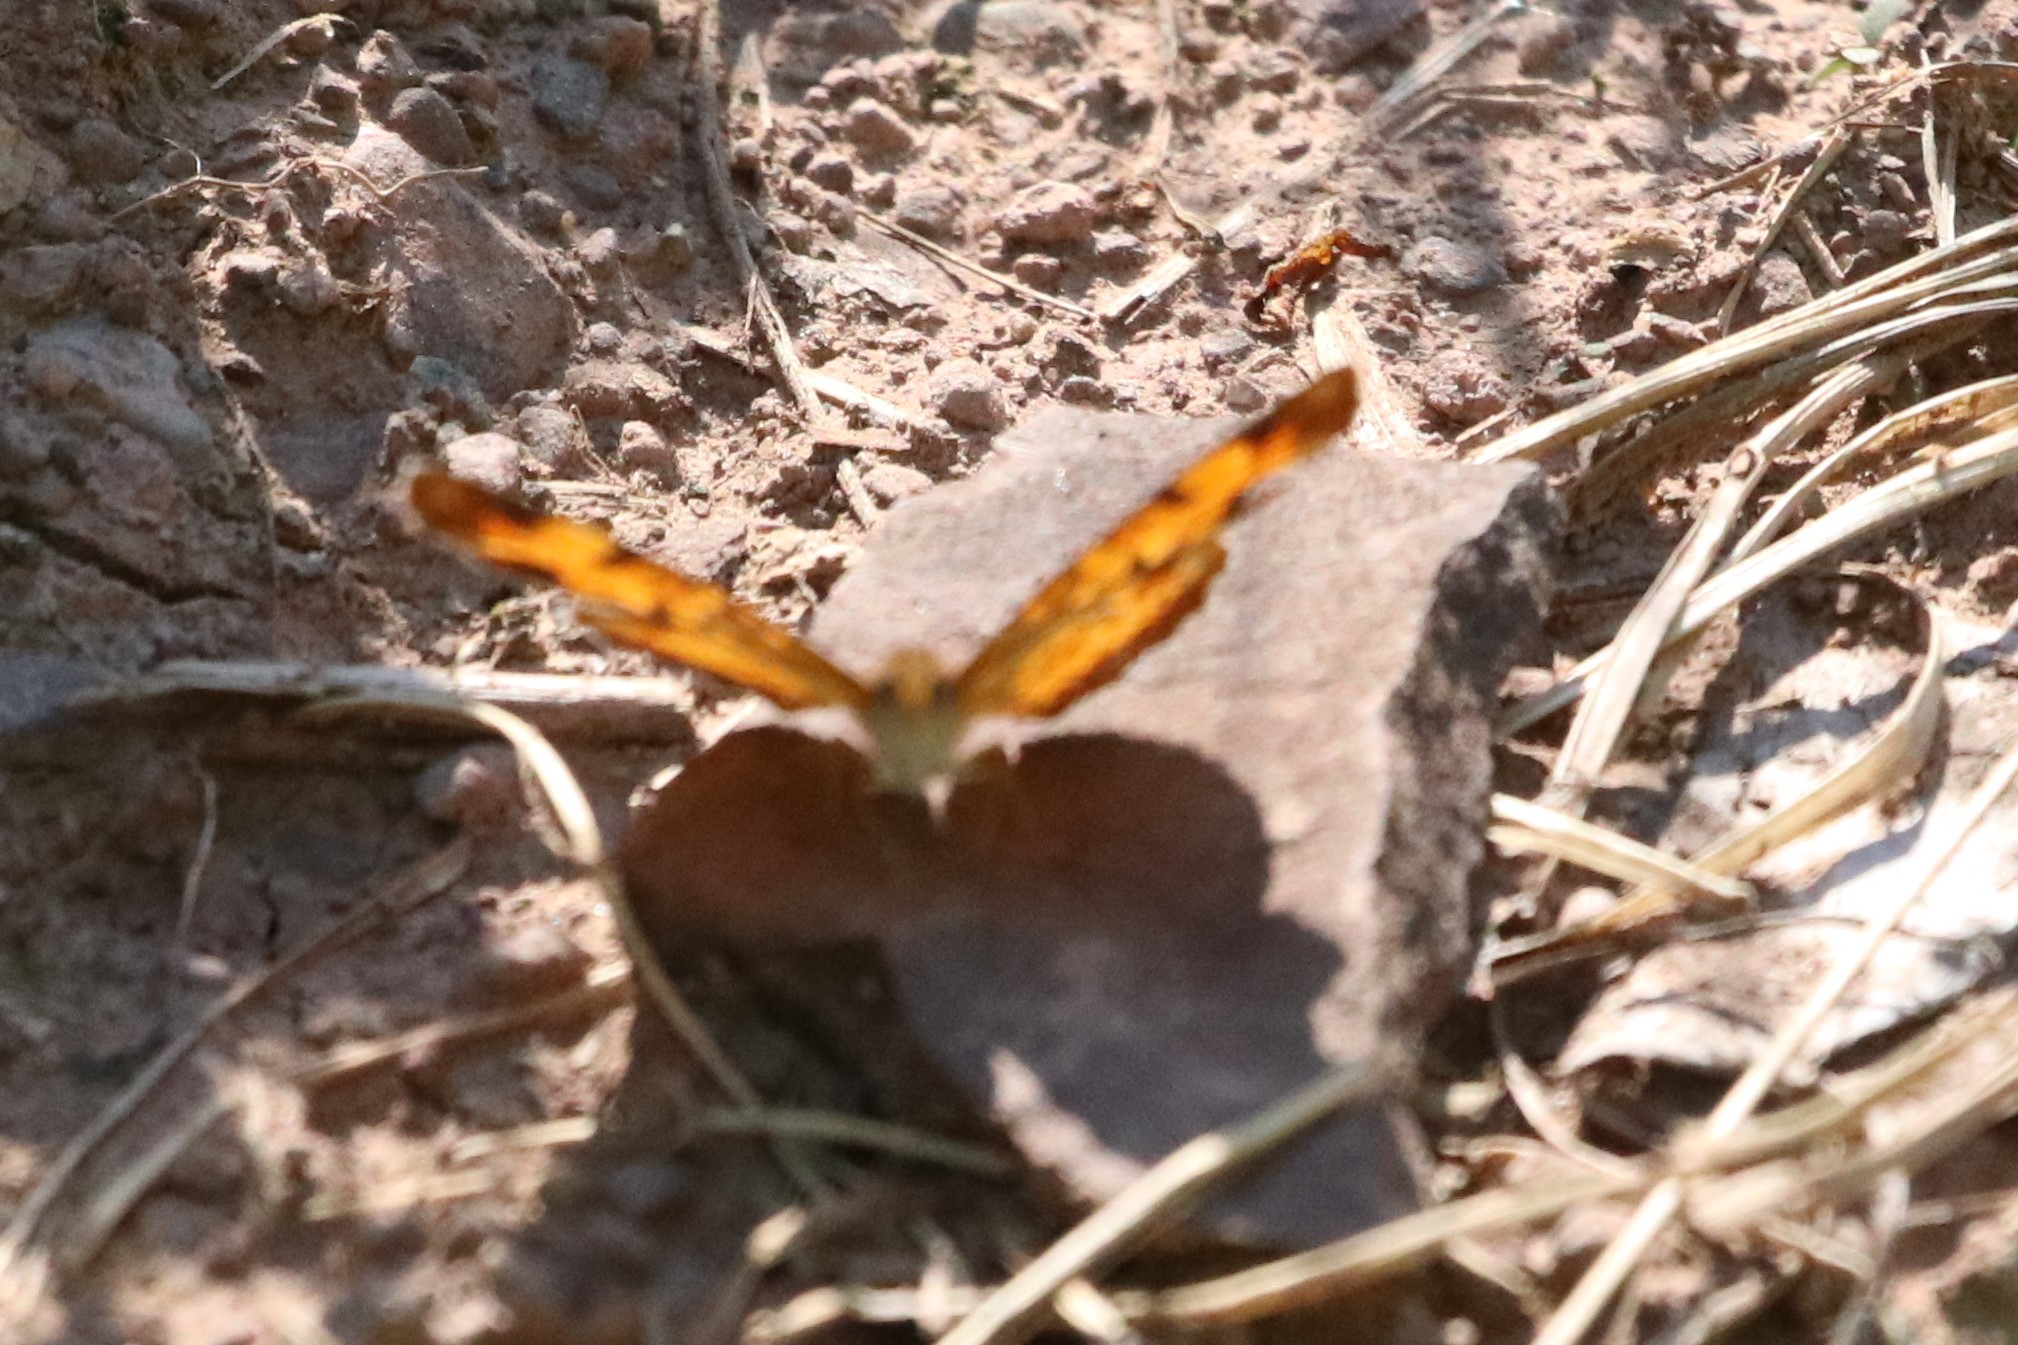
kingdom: Animalia
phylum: Arthropoda
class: Insecta
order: Lepidoptera
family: Nymphalidae
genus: Phyciodes
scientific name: Phyciodes tharos
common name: Pearl crescent
